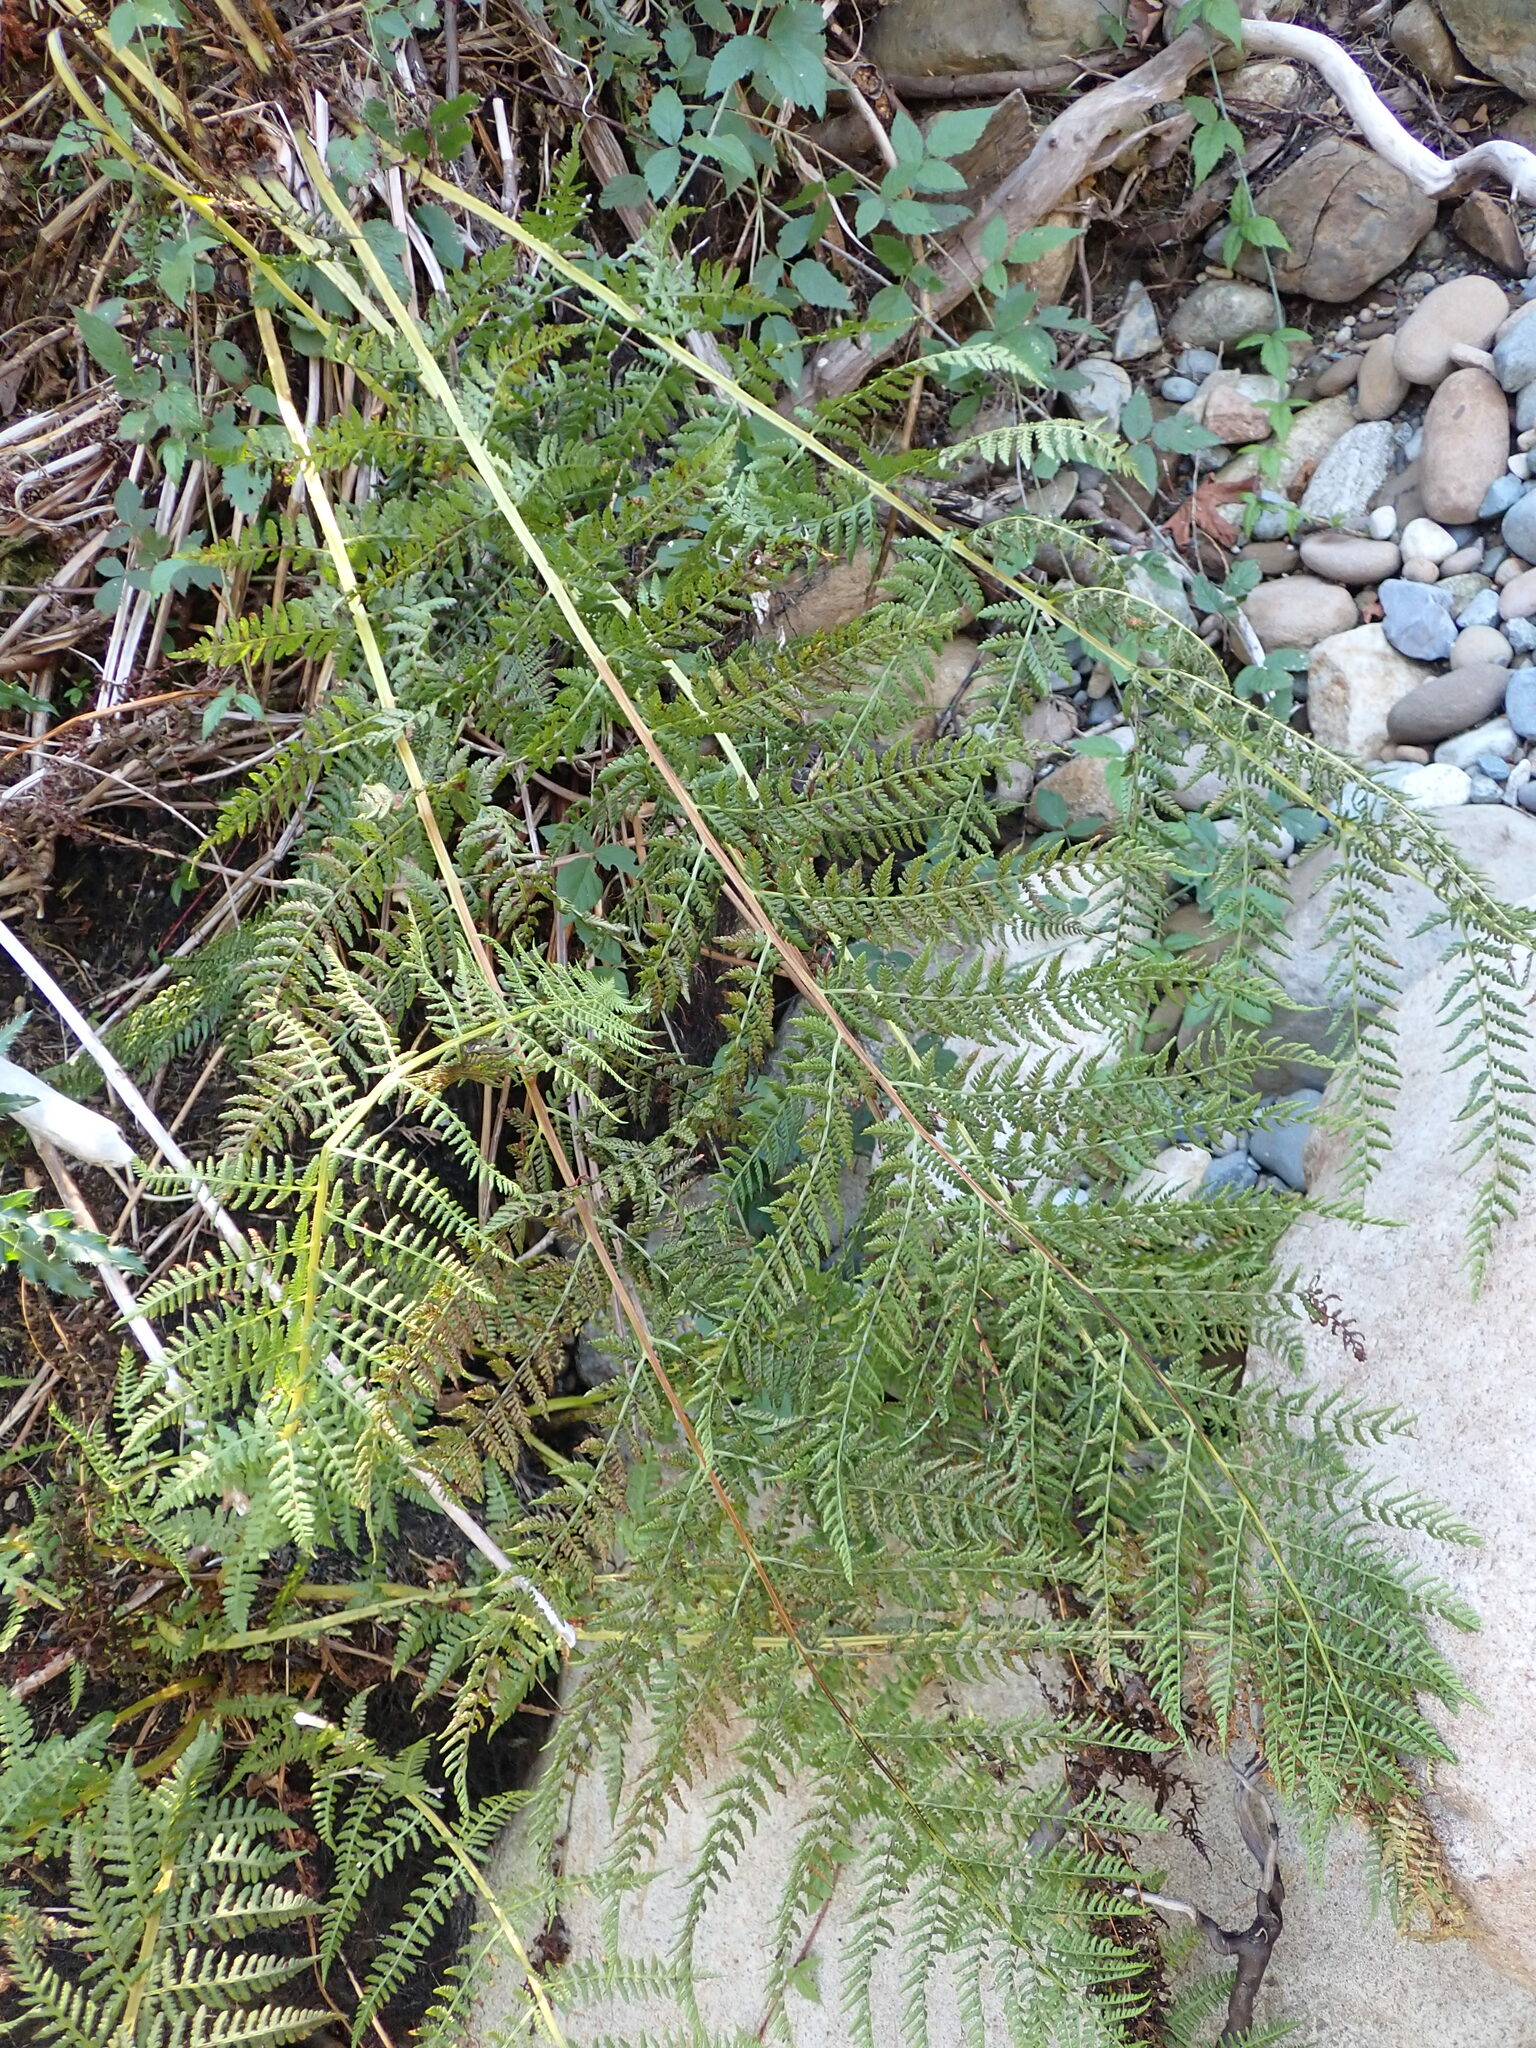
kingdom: Plantae
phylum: Tracheophyta
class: Polypodiopsida
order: Polypodiales
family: Athyriaceae
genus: Athyrium
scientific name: Athyrium filix-femina
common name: Lady fern
